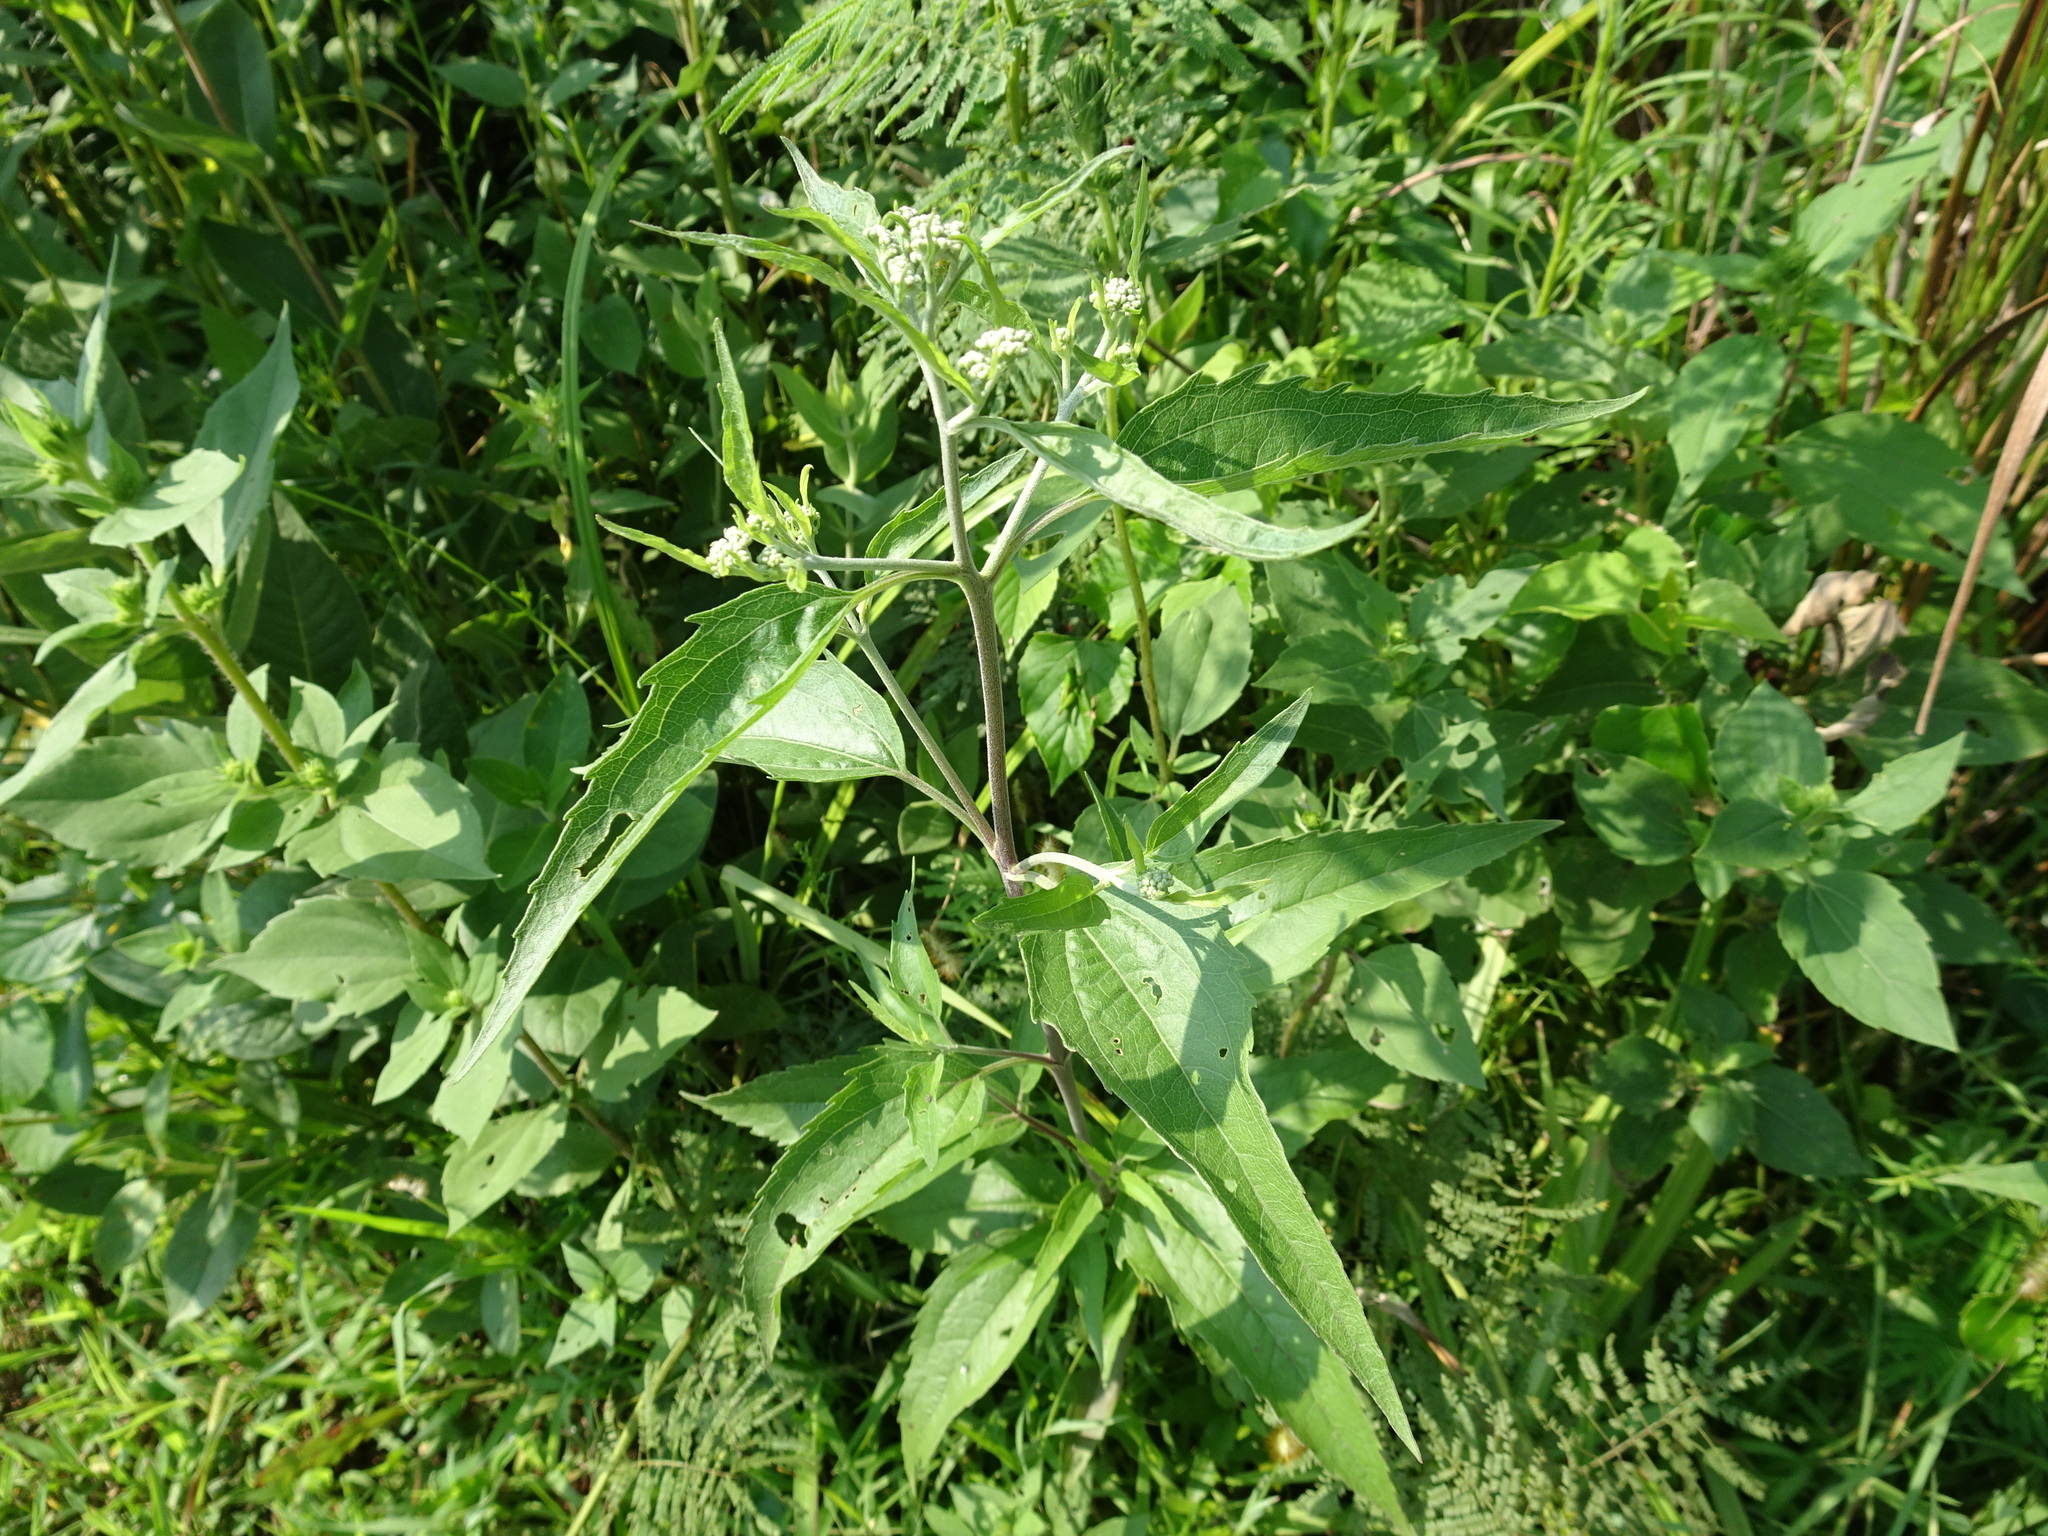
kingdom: Plantae
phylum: Tracheophyta
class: Magnoliopsida
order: Asterales
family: Asteraceae
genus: Eupatorium
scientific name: Eupatorium serotinum
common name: Late boneset
